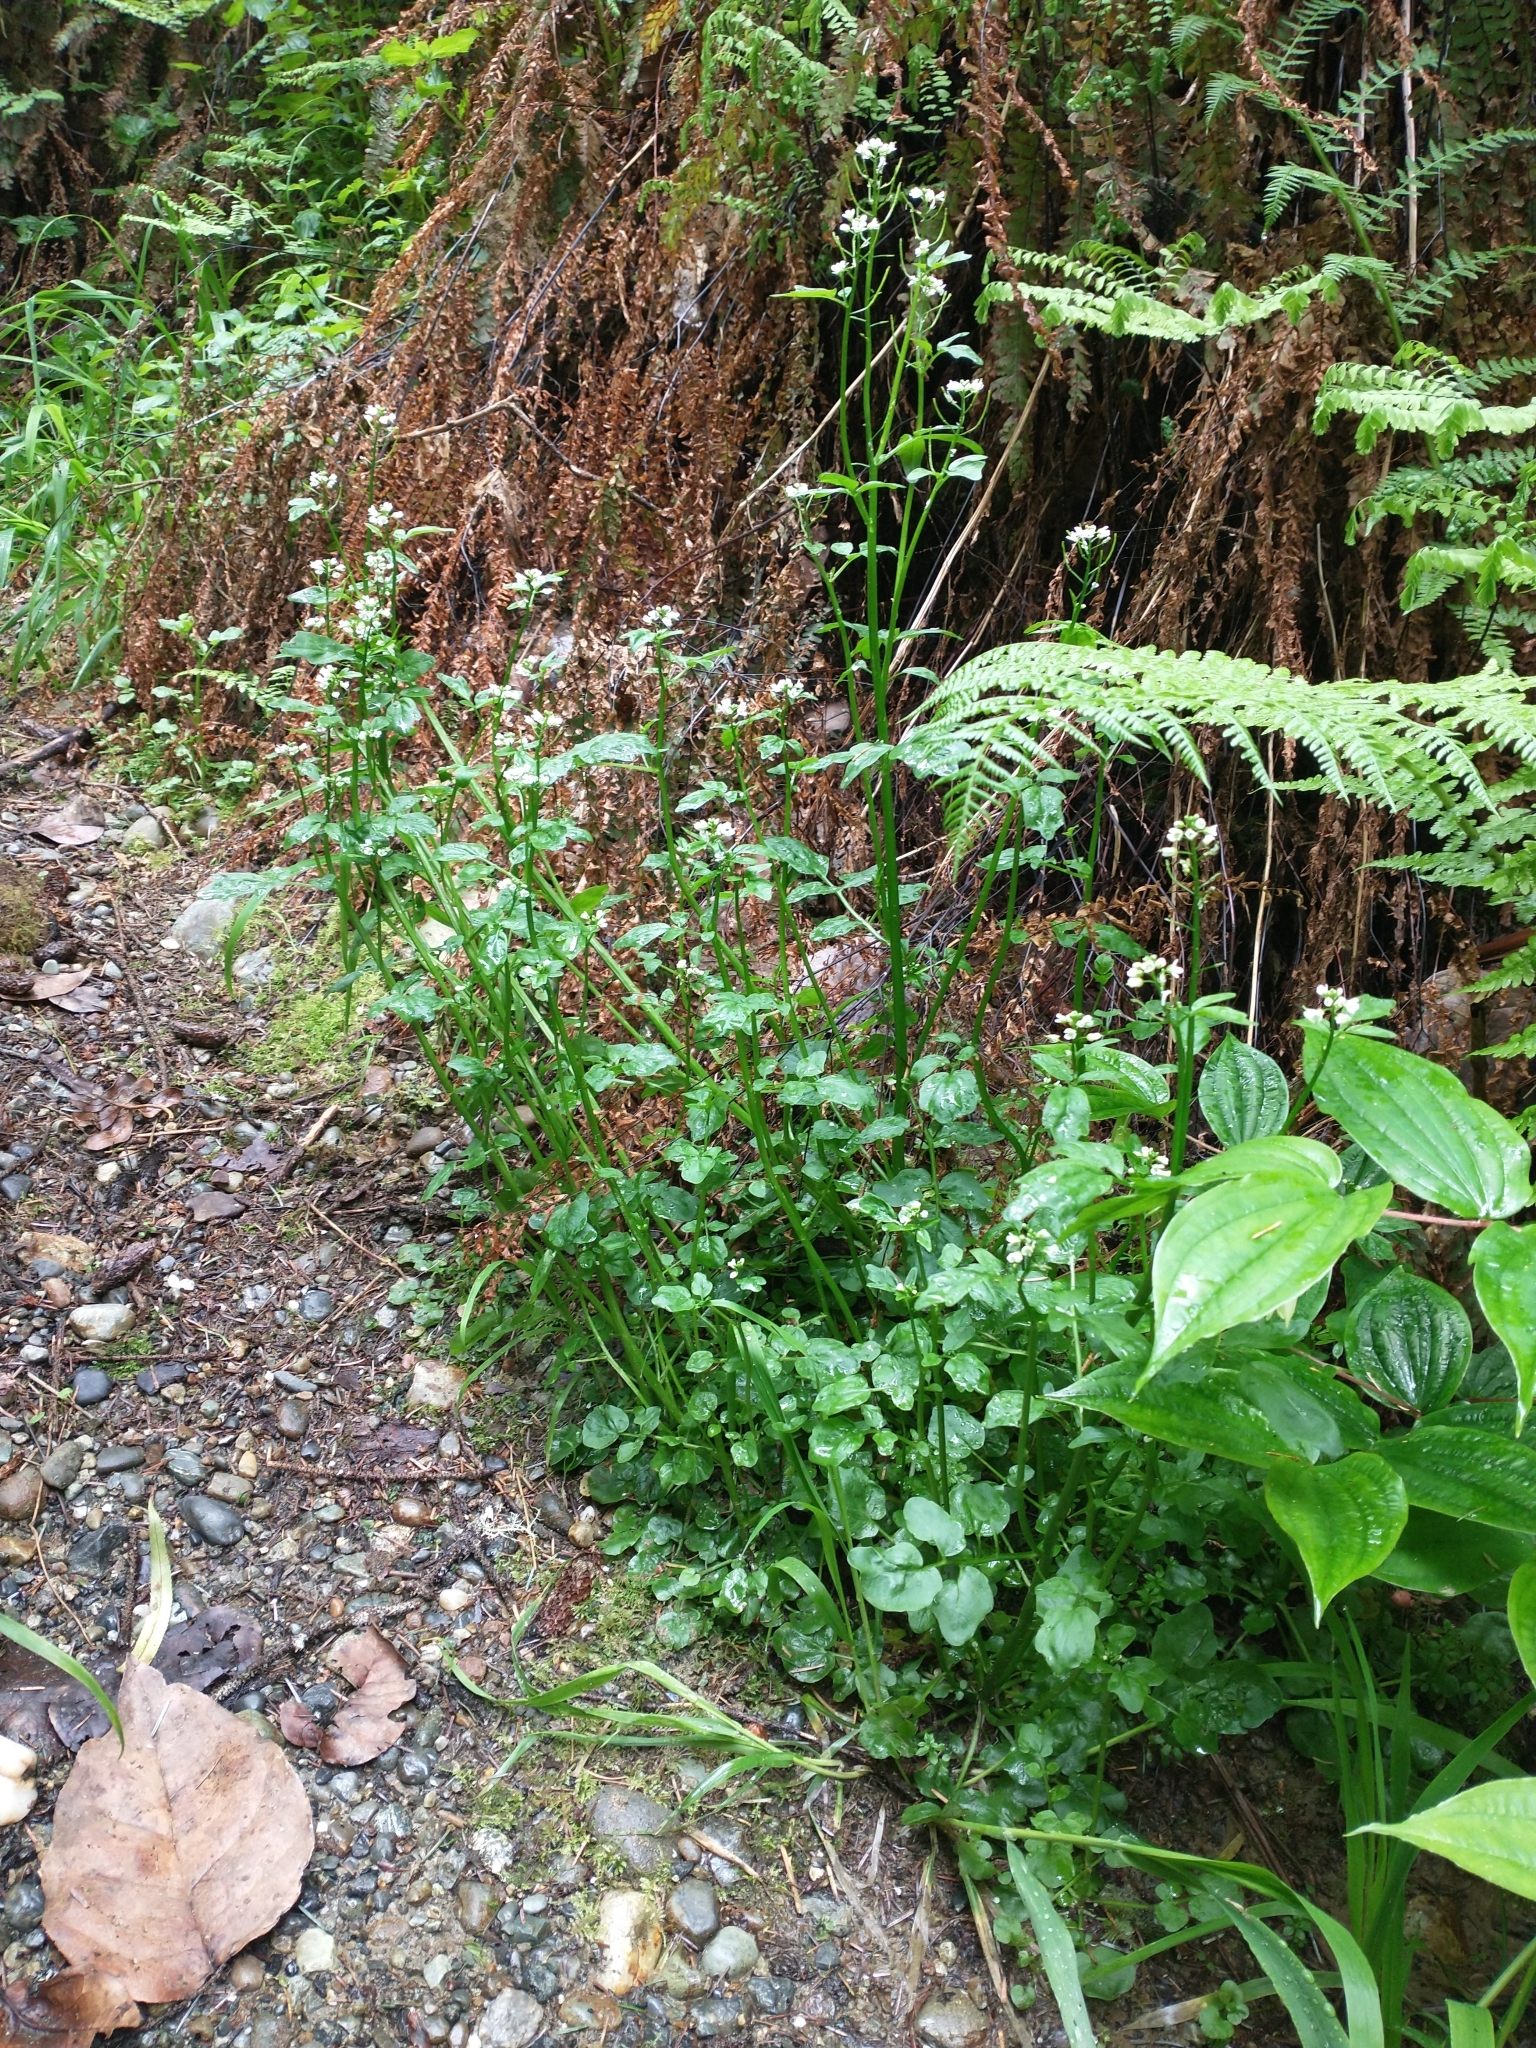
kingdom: Plantae
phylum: Tracheophyta
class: Magnoliopsida
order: Brassicales
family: Brassicaceae
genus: Cardamine
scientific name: Cardamine breweri
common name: Brewer's bittercress
